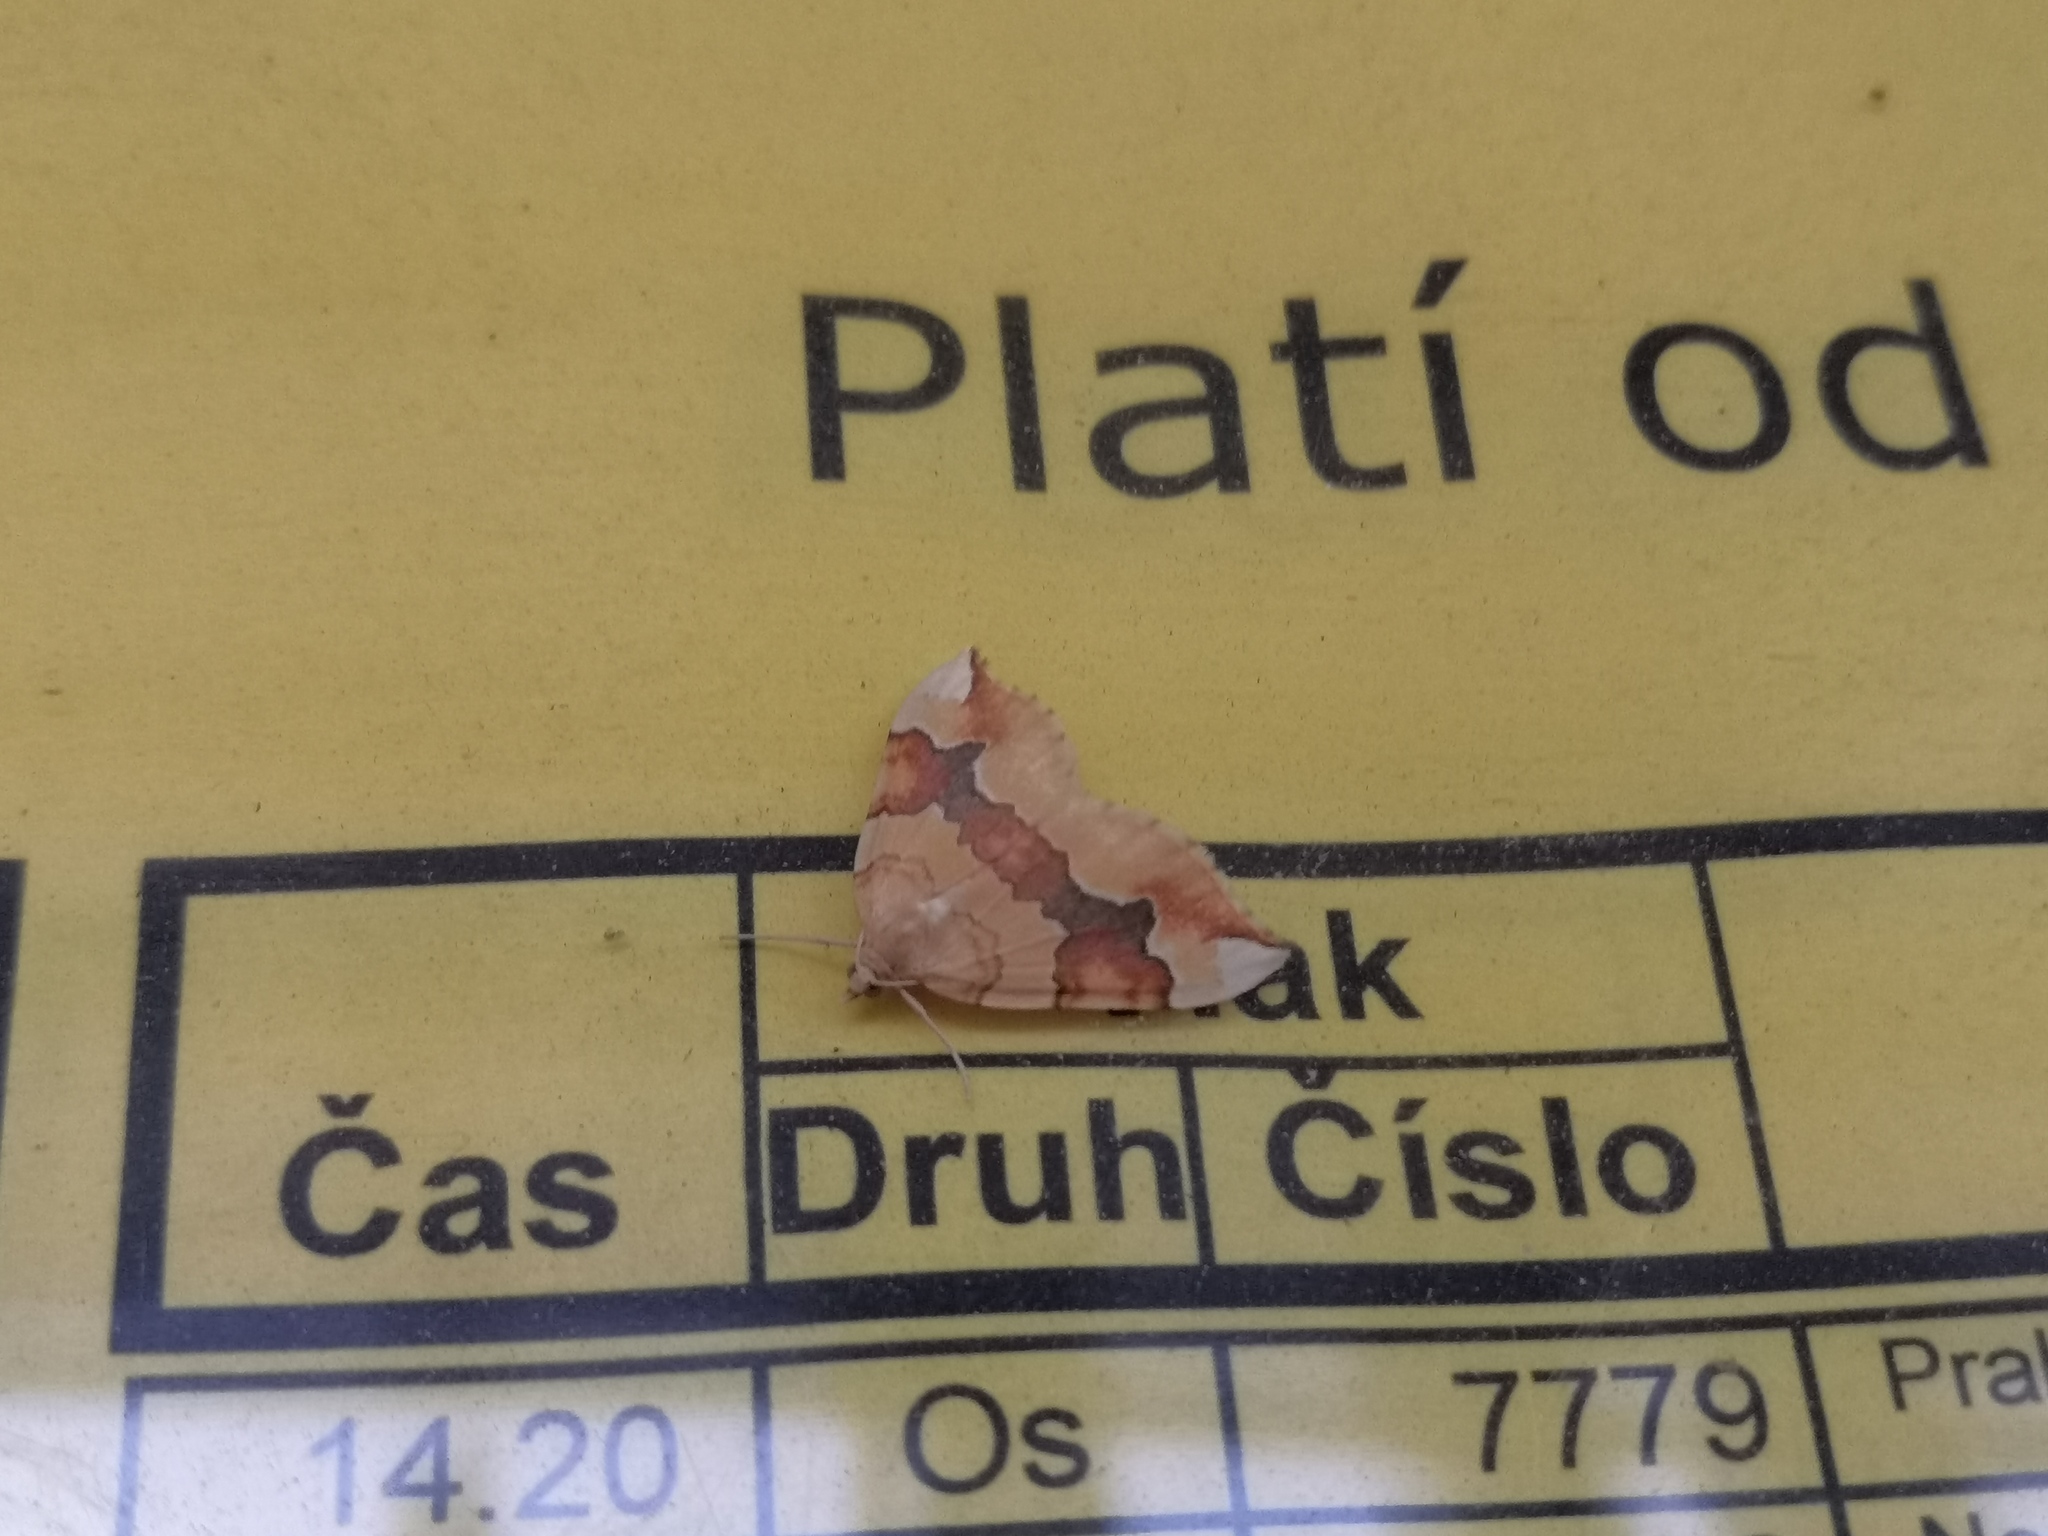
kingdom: Animalia
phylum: Arthropoda
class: Insecta
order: Lepidoptera
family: Geometridae
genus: Cidaria
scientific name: Cidaria fulvata
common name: Barred yellow
